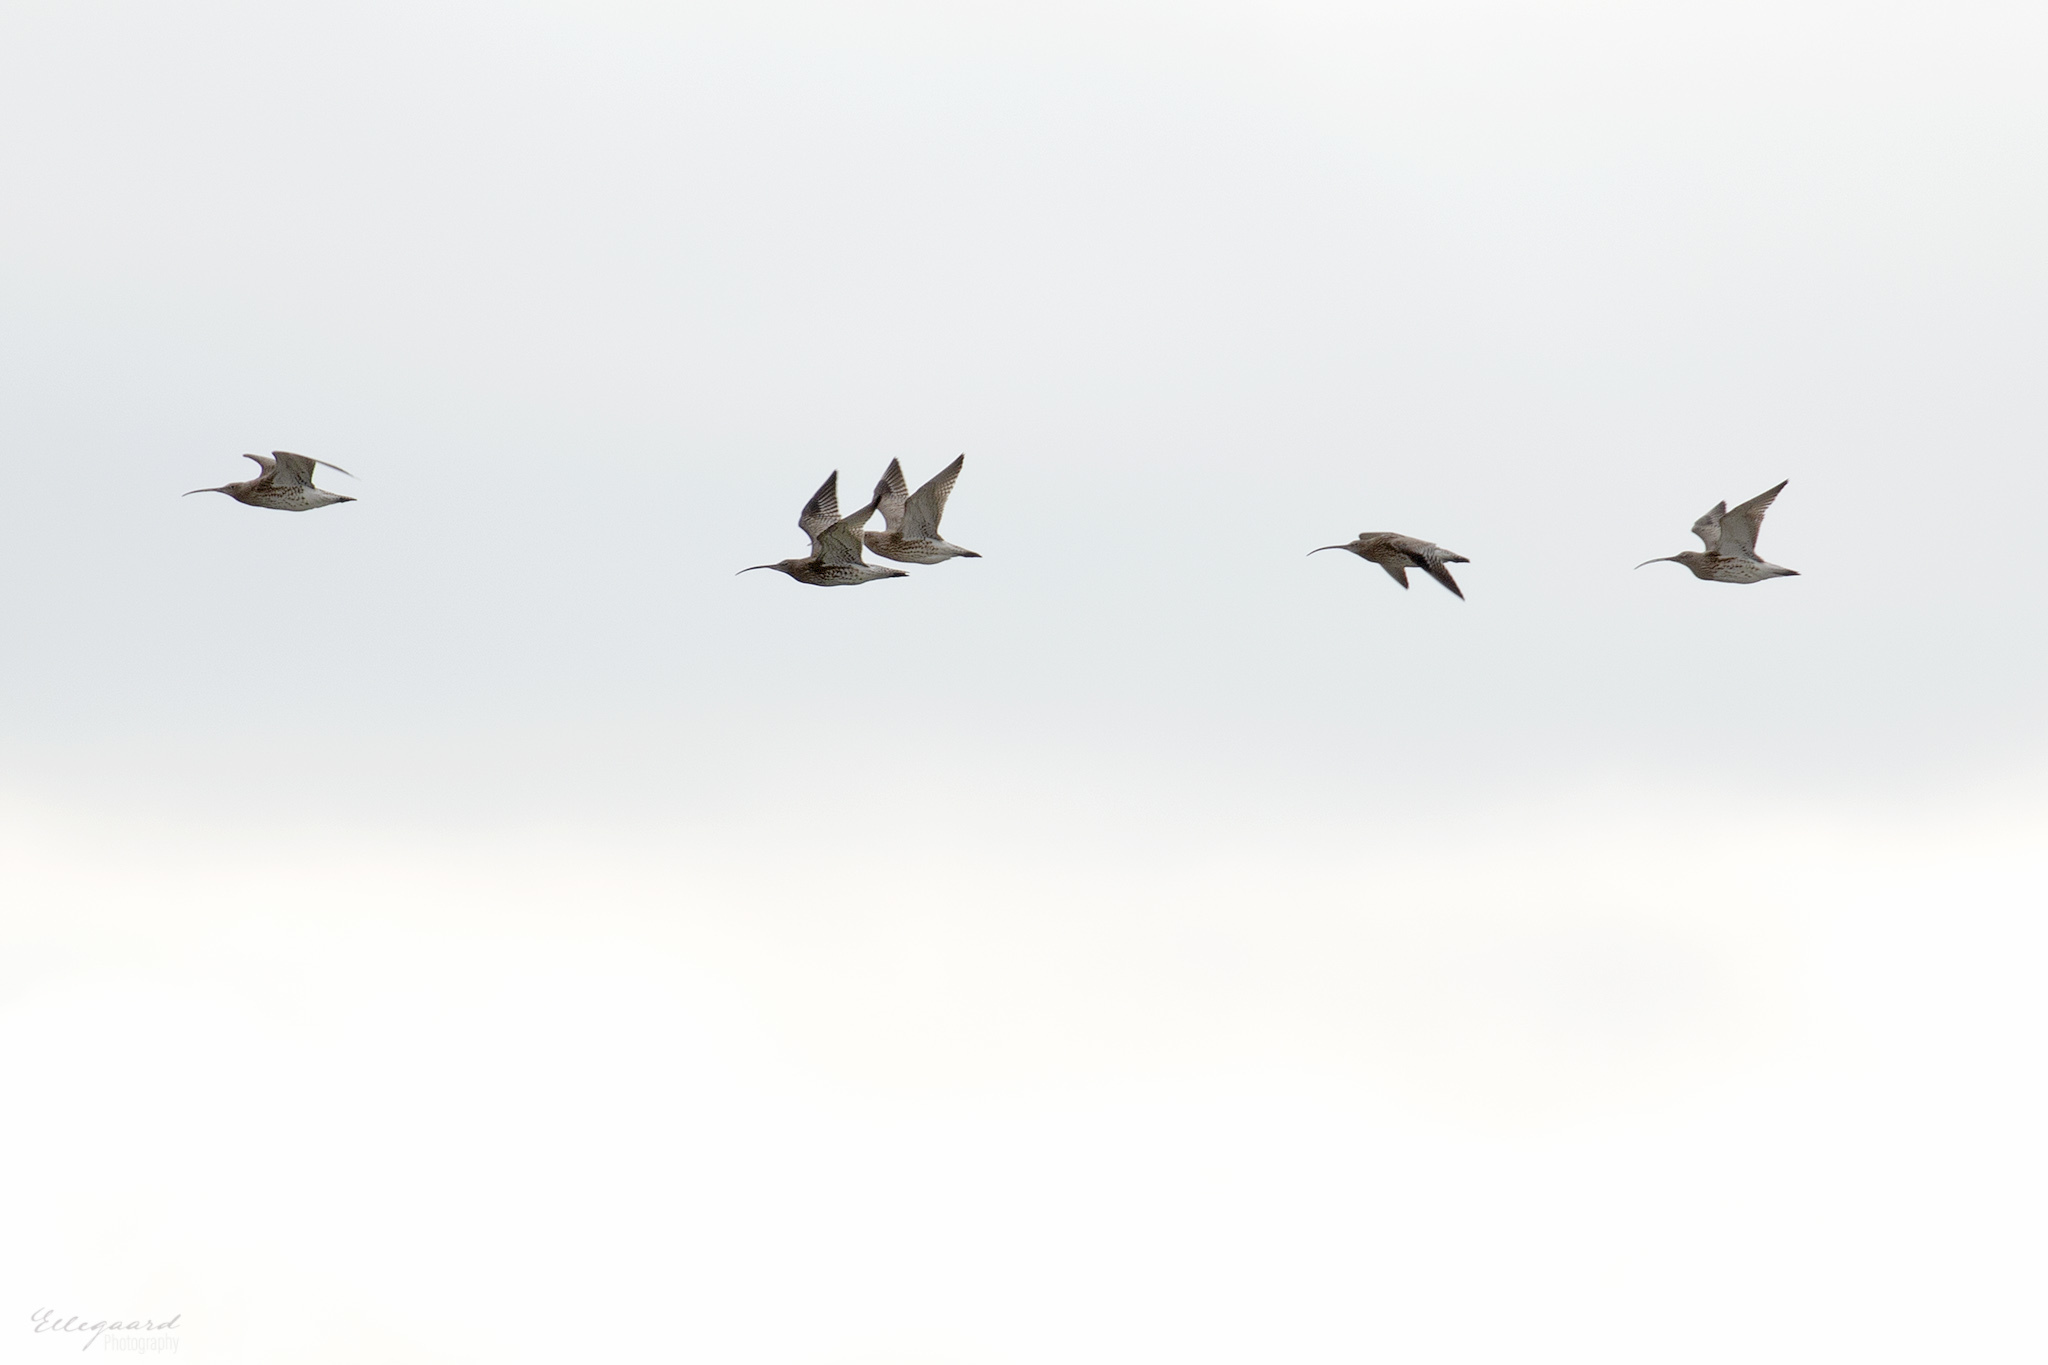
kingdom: Animalia
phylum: Chordata
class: Aves
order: Charadriiformes
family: Scolopacidae
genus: Numenius
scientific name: Numenius arquata
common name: Eurasian curlew
